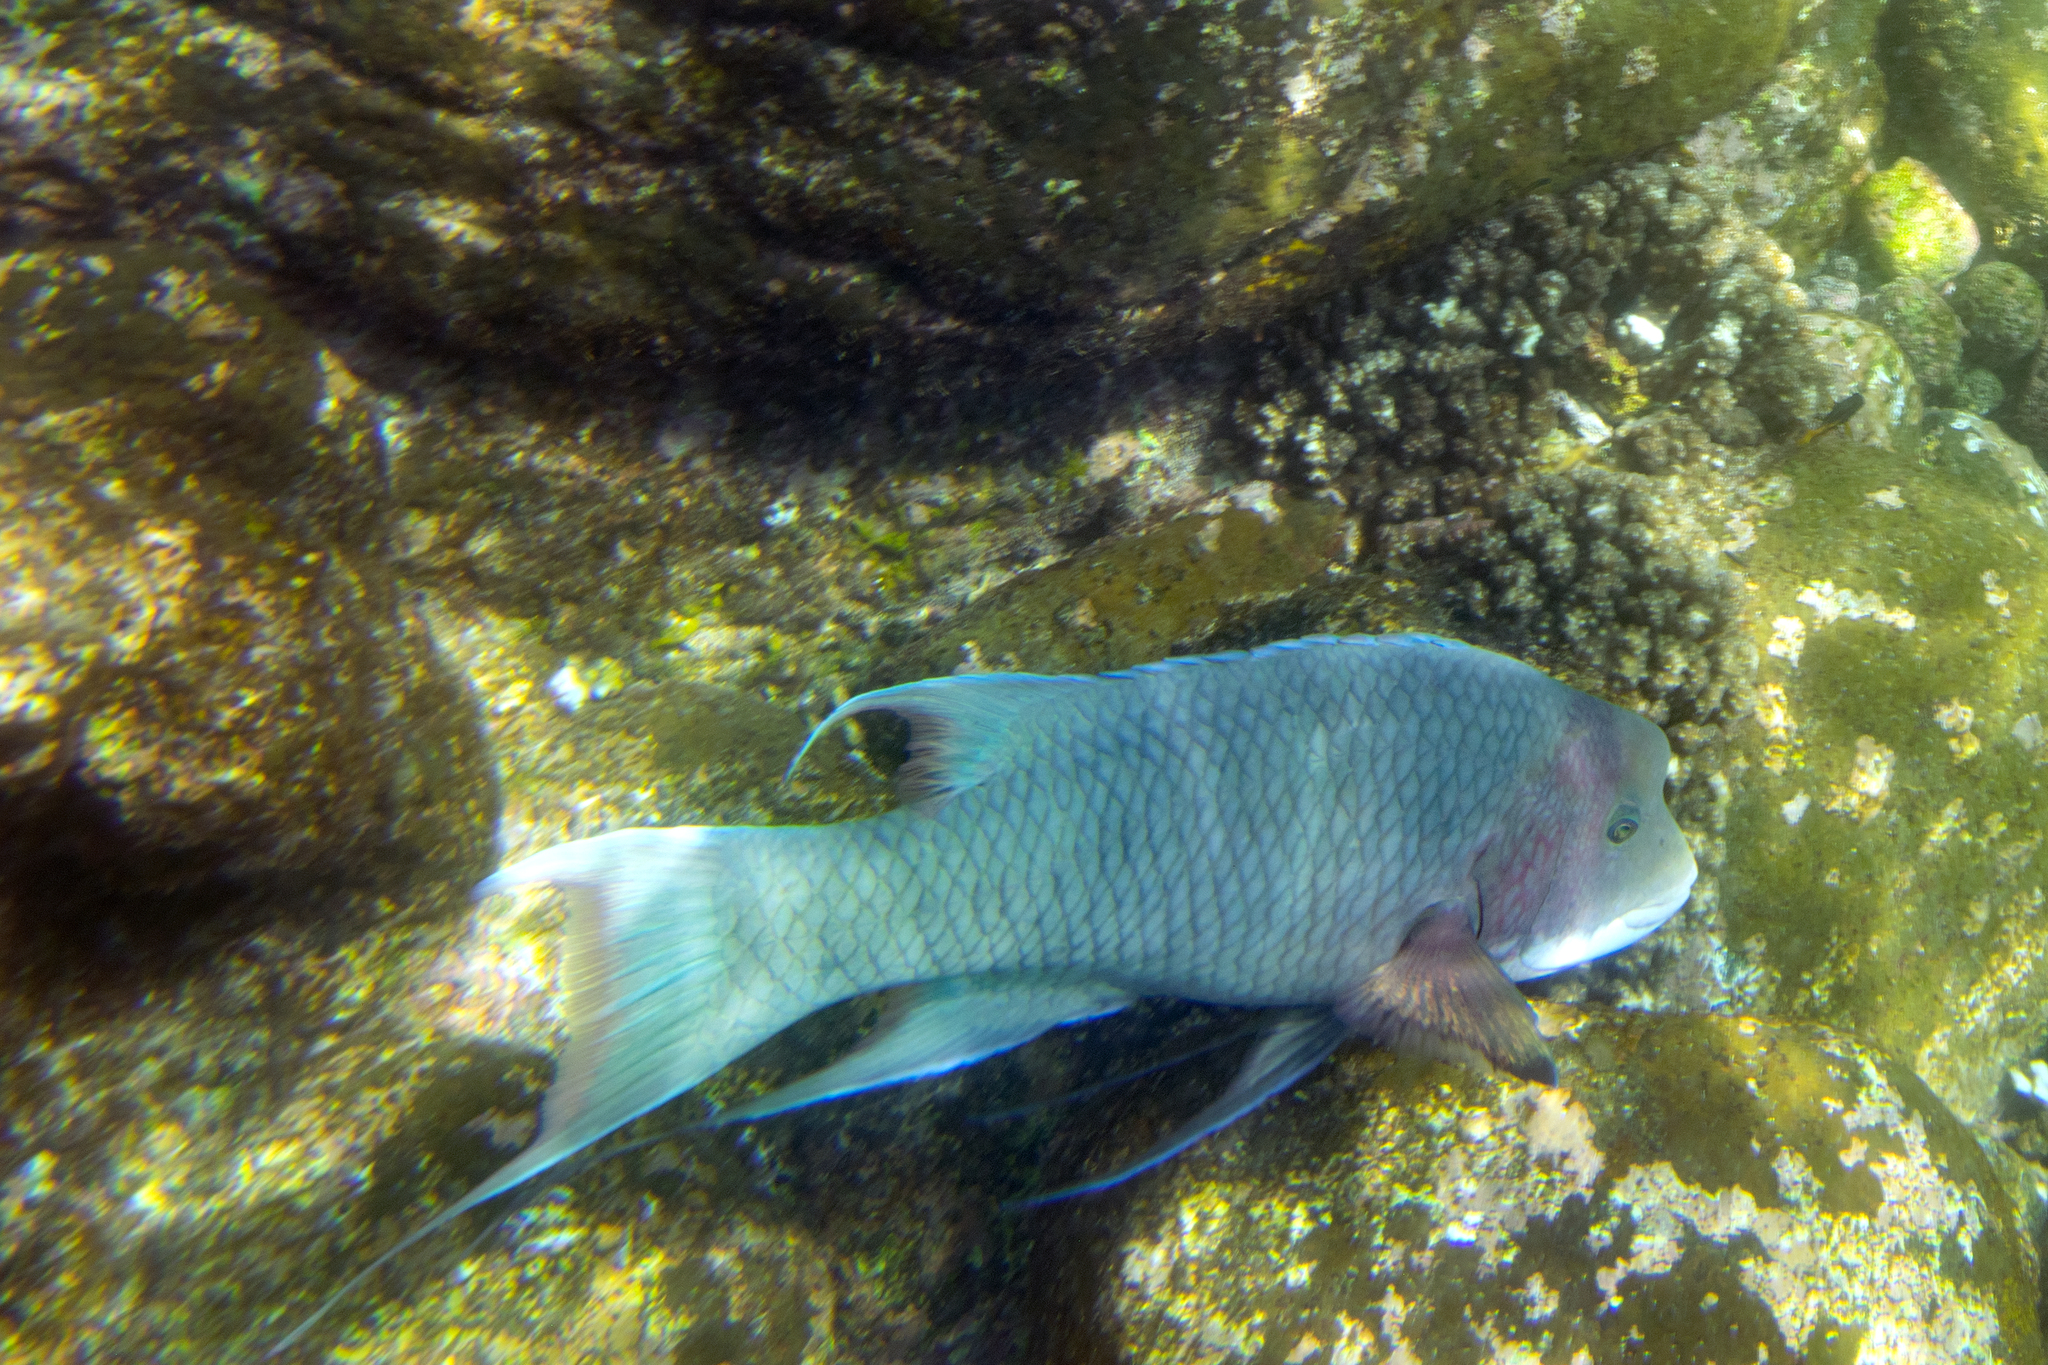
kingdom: Animalia
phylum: Chordata
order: Perciformes
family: Labridae
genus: Bodianus
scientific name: Bodianus diplotaenia
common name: Mexican hogfish
